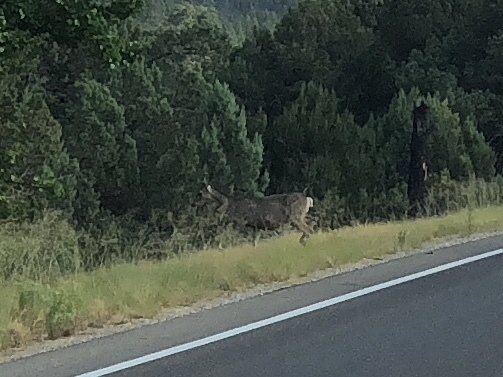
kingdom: Animalia
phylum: Chordata
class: Mammalia
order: Artiodactyla
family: Cervidae
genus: Odocoileus
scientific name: Odocoileus hemionus
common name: Mule deer
